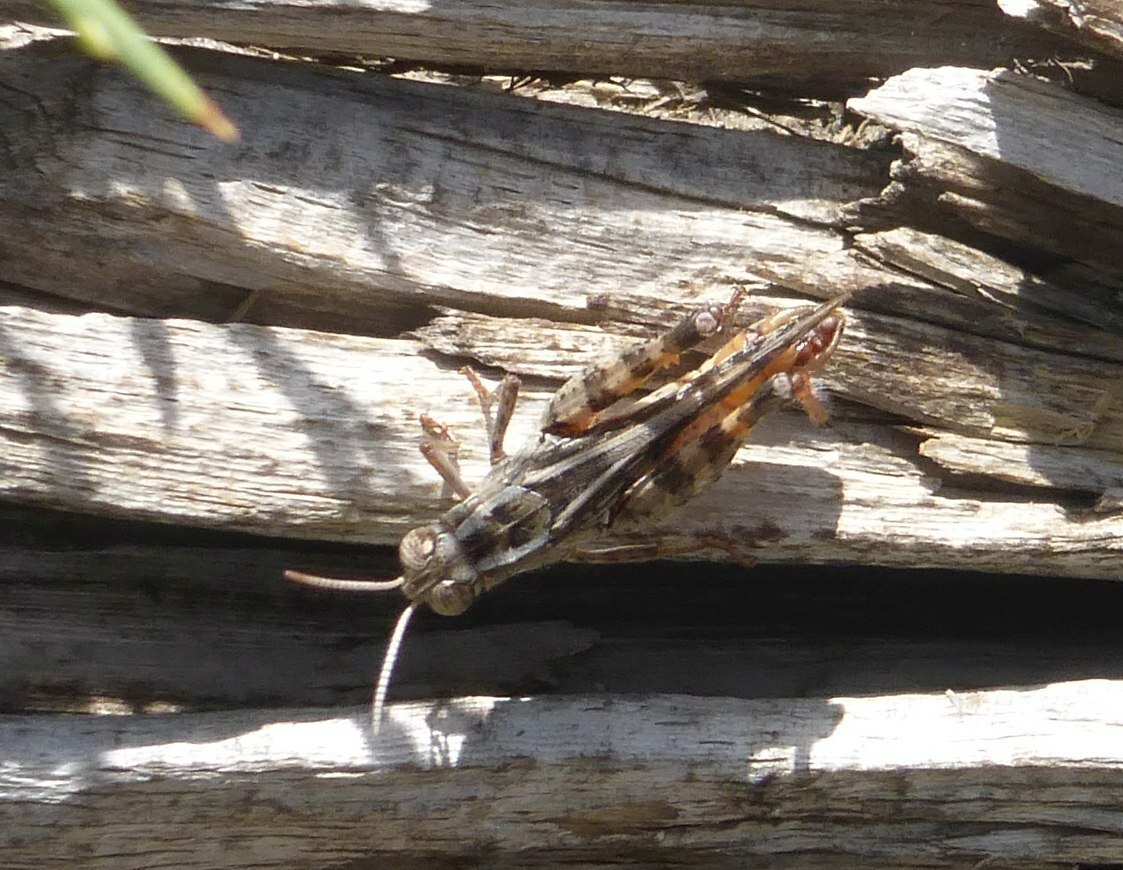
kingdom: Animalia
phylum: Arthropoda
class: Insecta
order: Orthoptera
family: Acrididae
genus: Calliptamus
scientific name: Calliptamus barbarus
